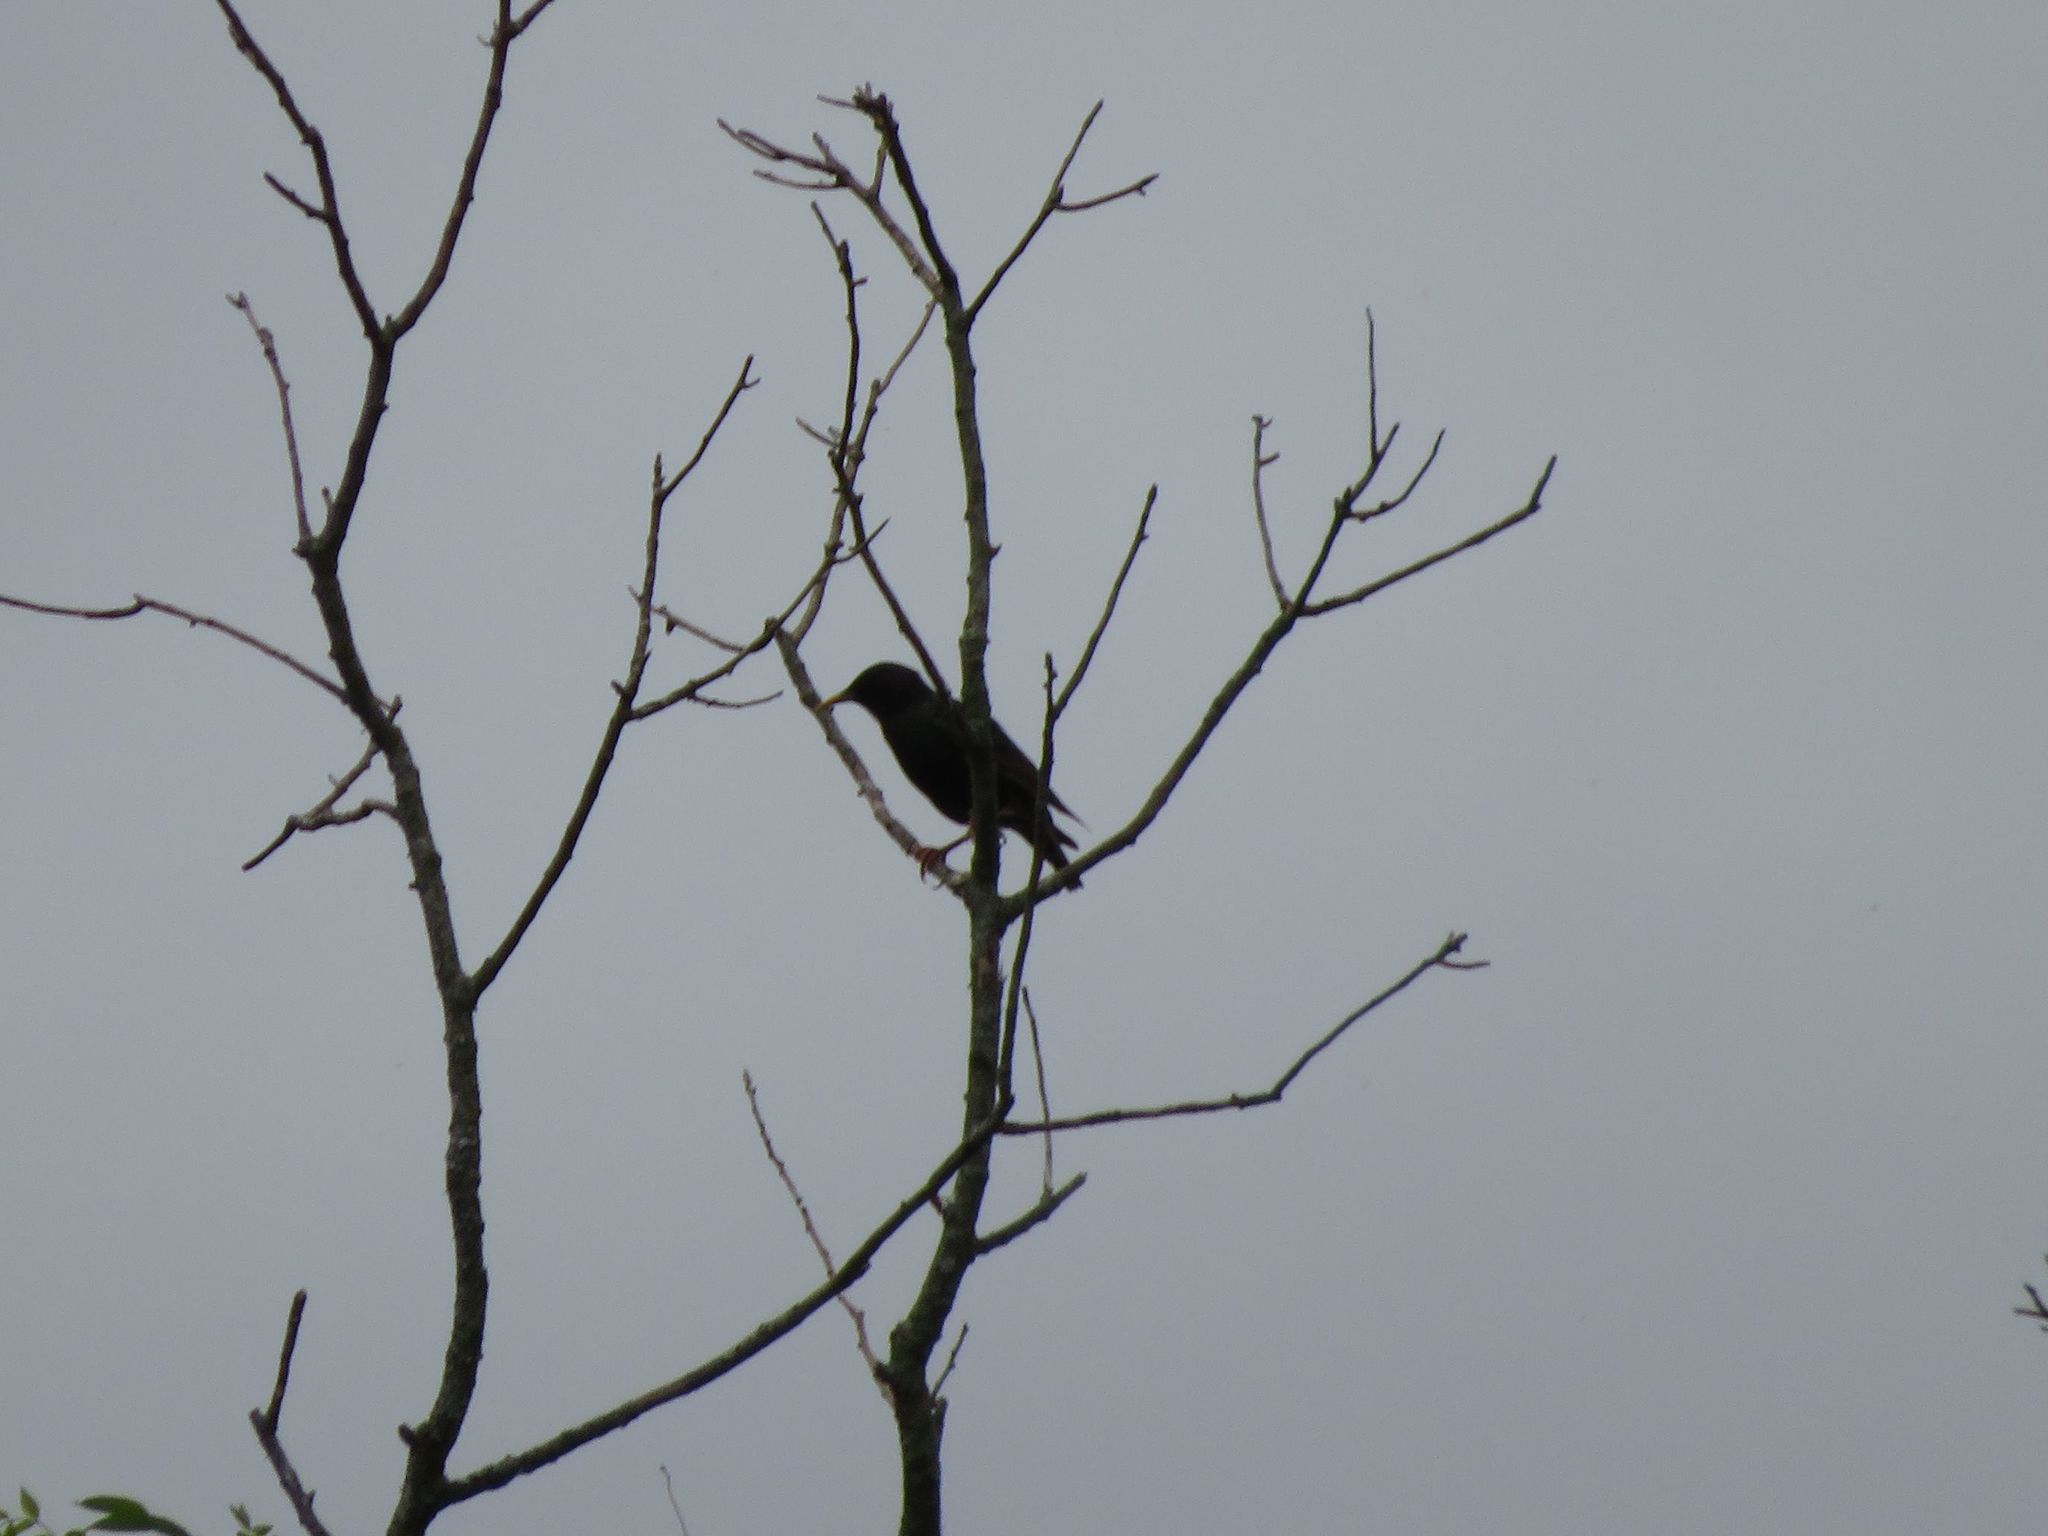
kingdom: Animalia
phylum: Chordata
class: Aves
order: Passeriformes
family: Sturnidae
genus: Sturnus
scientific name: Sturnus vulgaris
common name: Common starling
